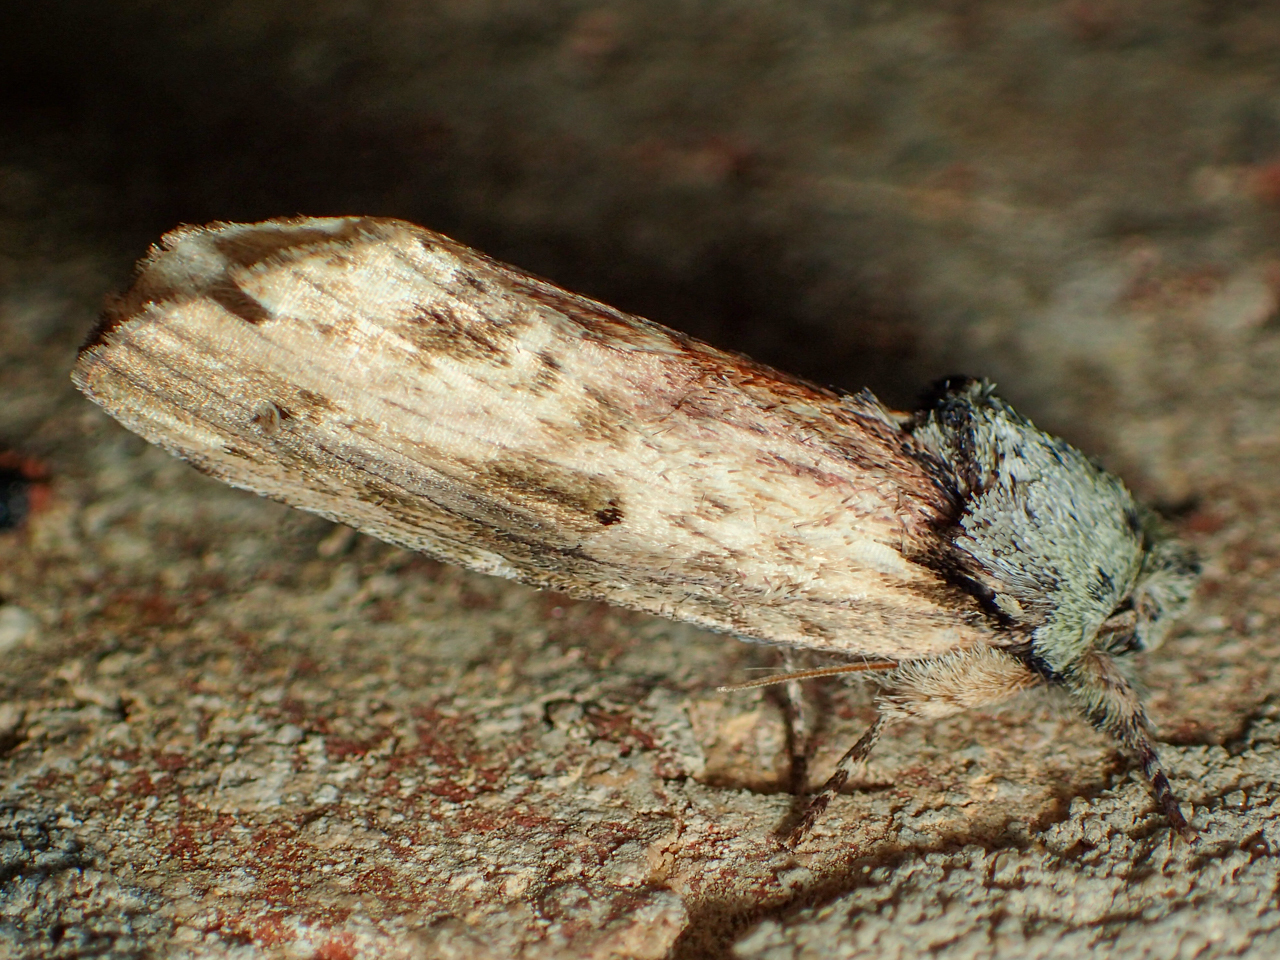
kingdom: Animalia
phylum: Arthropoda
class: Insecta
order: Lepidoptera
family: Notodontidae
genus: Schizura
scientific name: Schizura
